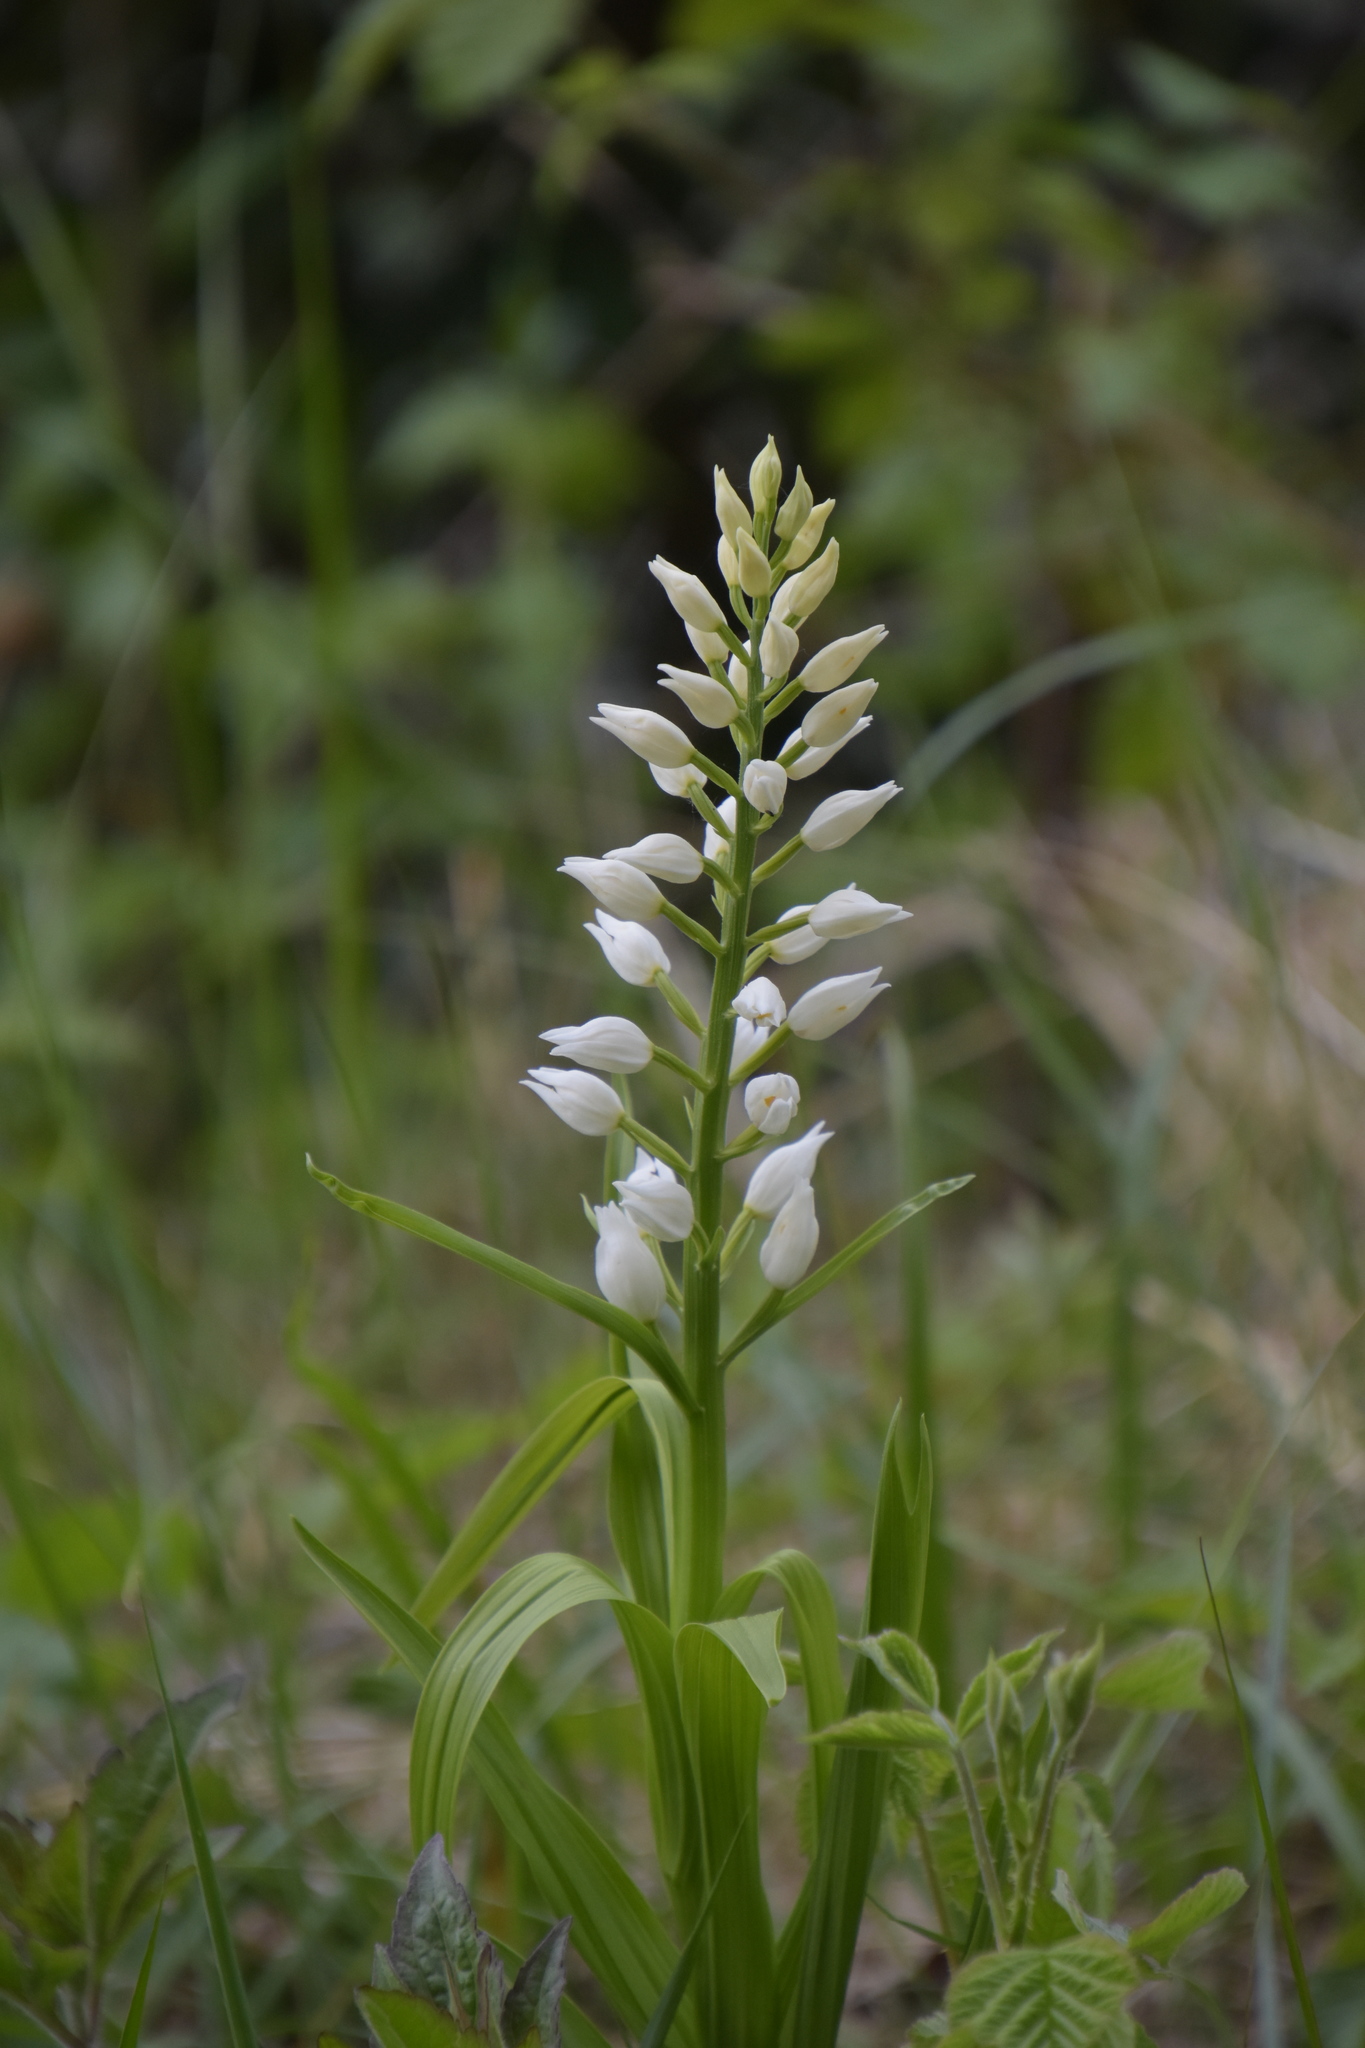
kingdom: Plantae
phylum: Tracheophyta
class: Liliopsida
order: Asparagales
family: Orchidaceae
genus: Cephalanthera
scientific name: Cephalanthera longifolia
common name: Narrow-leaved helleborine
